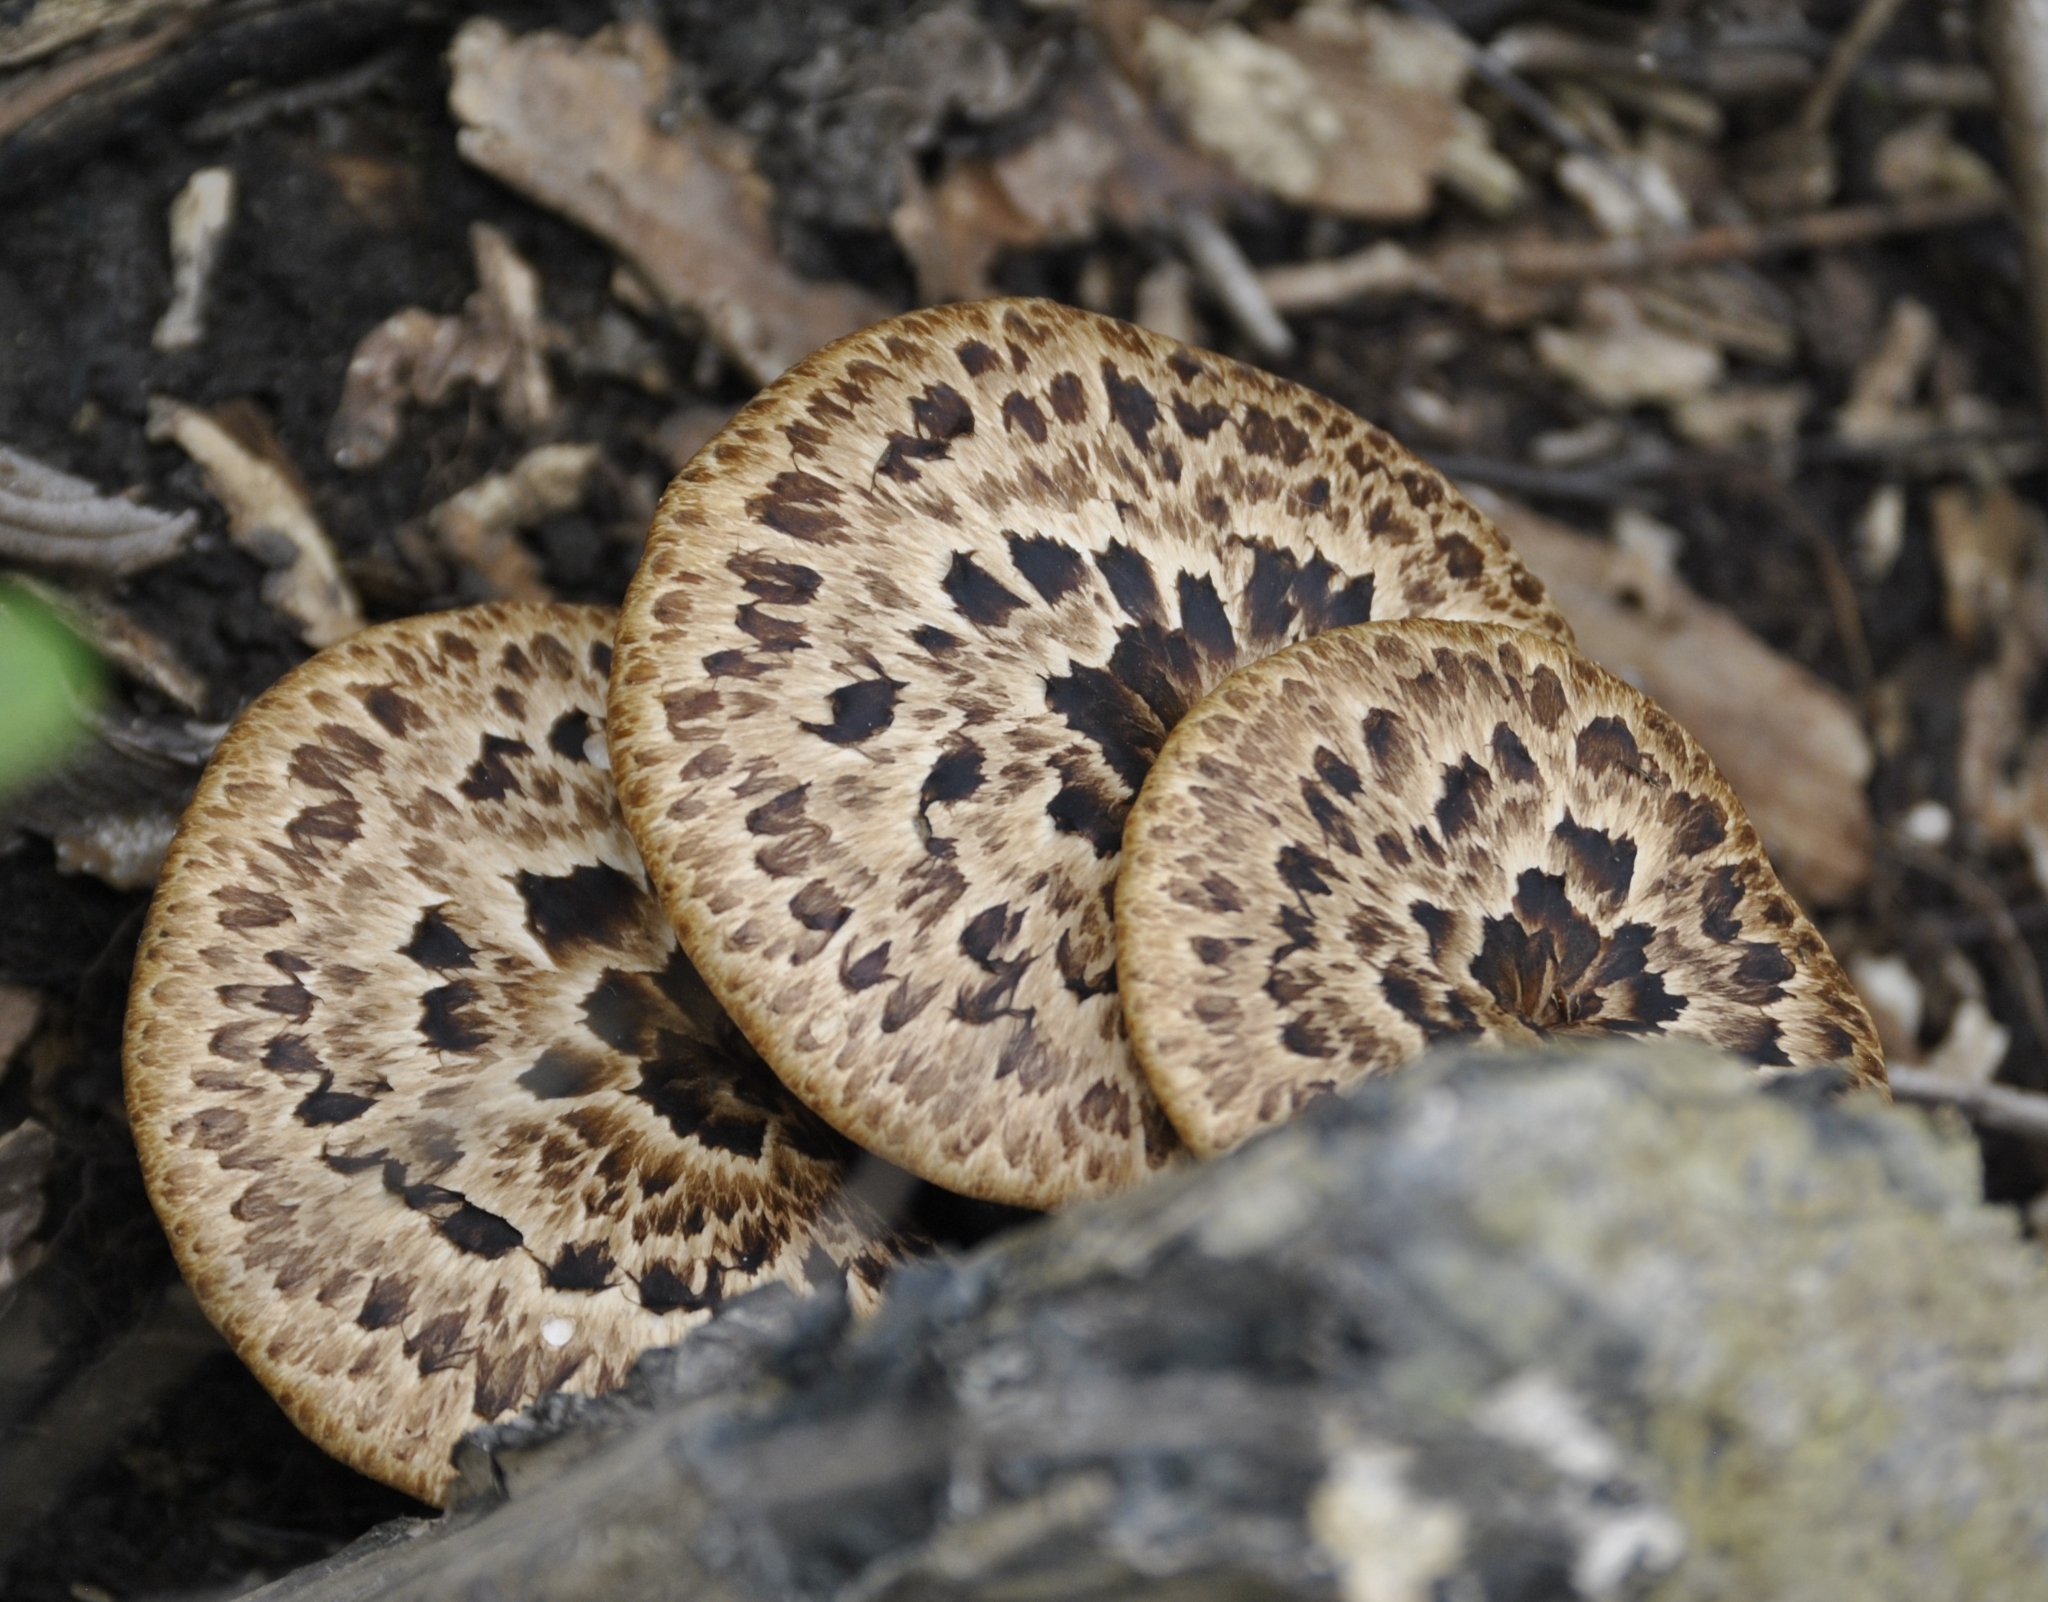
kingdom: Fungi
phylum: Basidiomycota
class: Agaricomycetes
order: Polyporales
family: Polyporaceae
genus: Cerioporus
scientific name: Cerioporus squamosus
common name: Dryad's saddle
